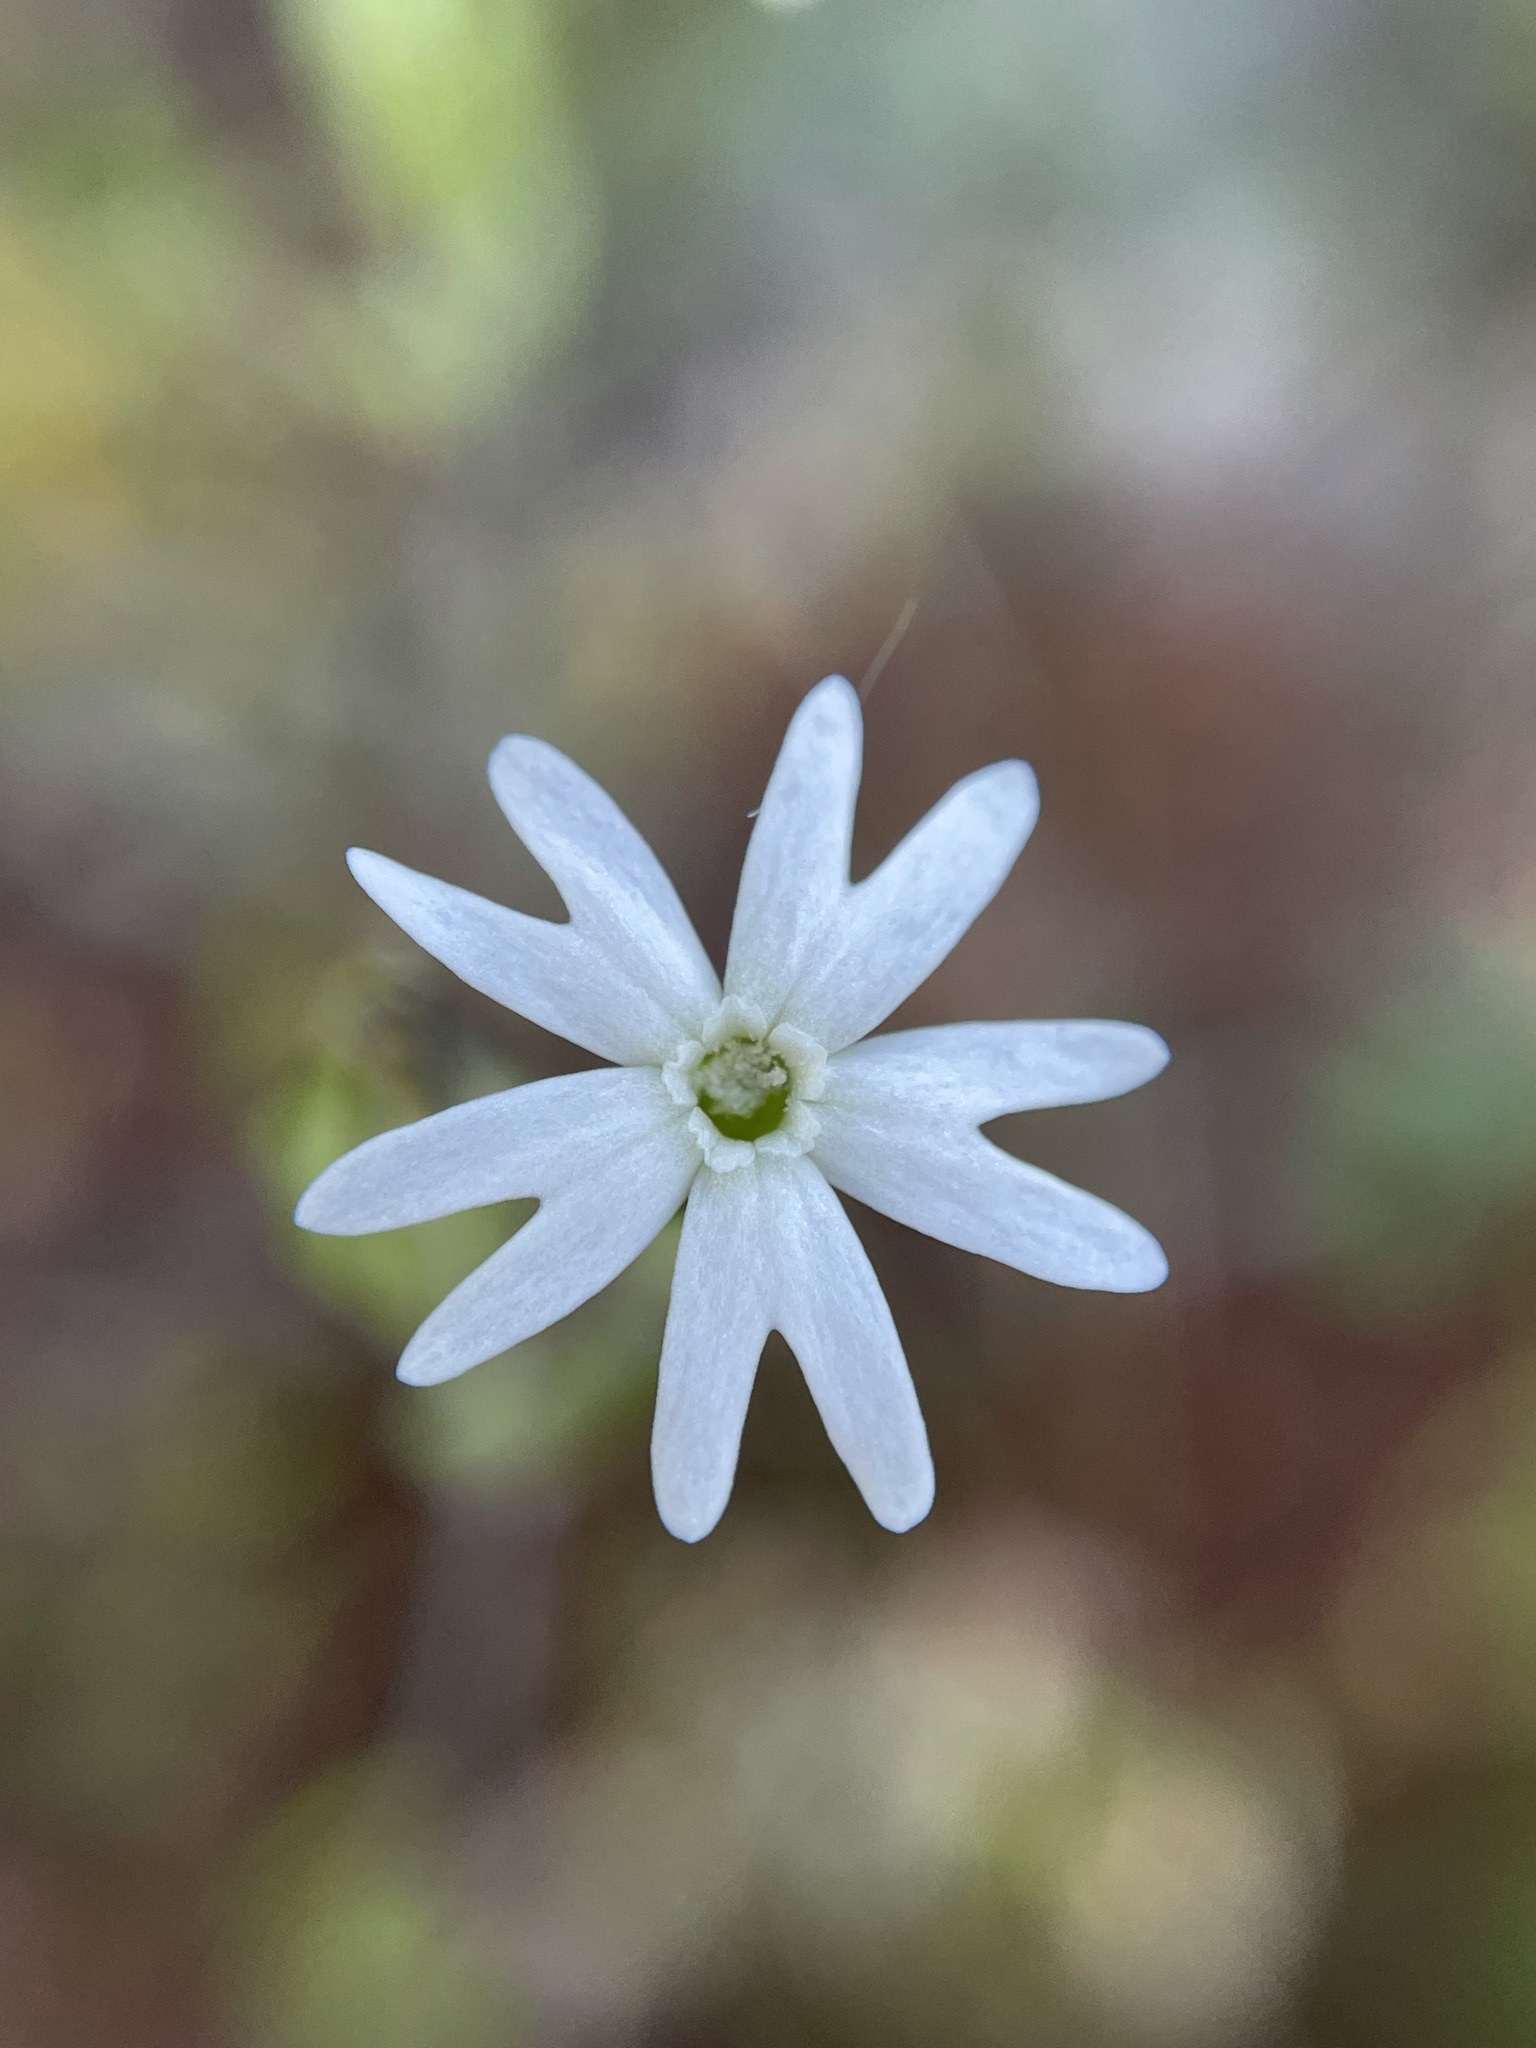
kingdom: Plantae
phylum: Tracheophyta
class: Magnoliopsida
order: Caryophyllales
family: Caryophyllaceae
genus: Silene
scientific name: Silene aethiopica
